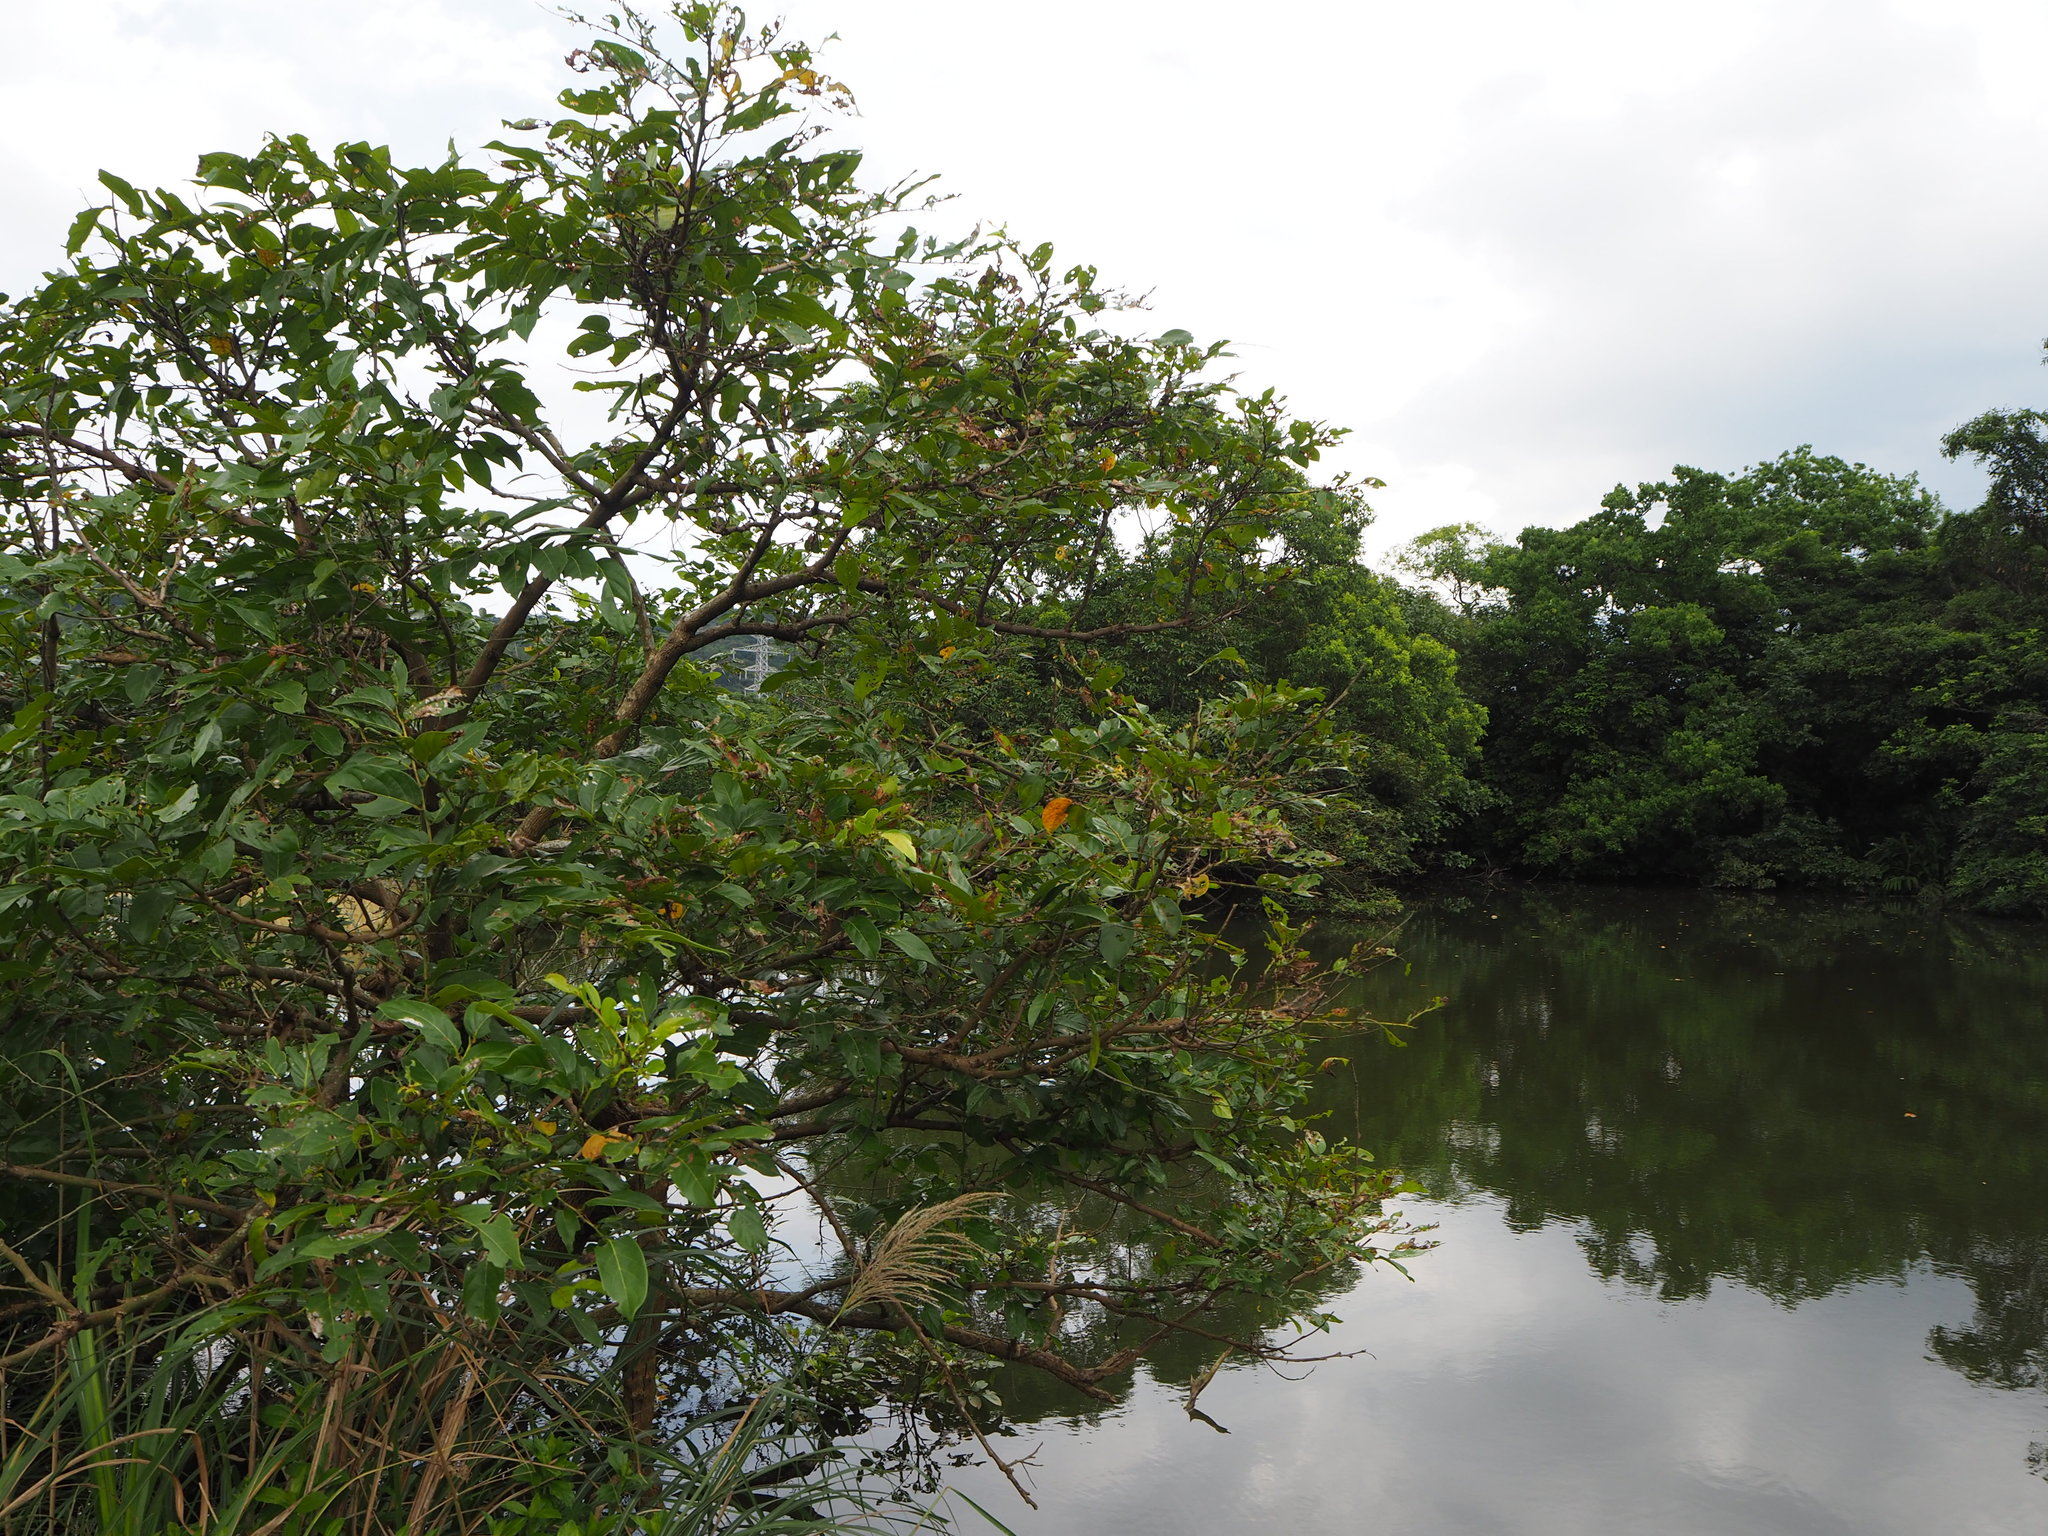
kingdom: Plantae
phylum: Tracheophyta
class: Magnoliopsida
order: Malpighiales
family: Phyllanthaceae
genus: Glochidion
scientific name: Glochidion zeylanicum
